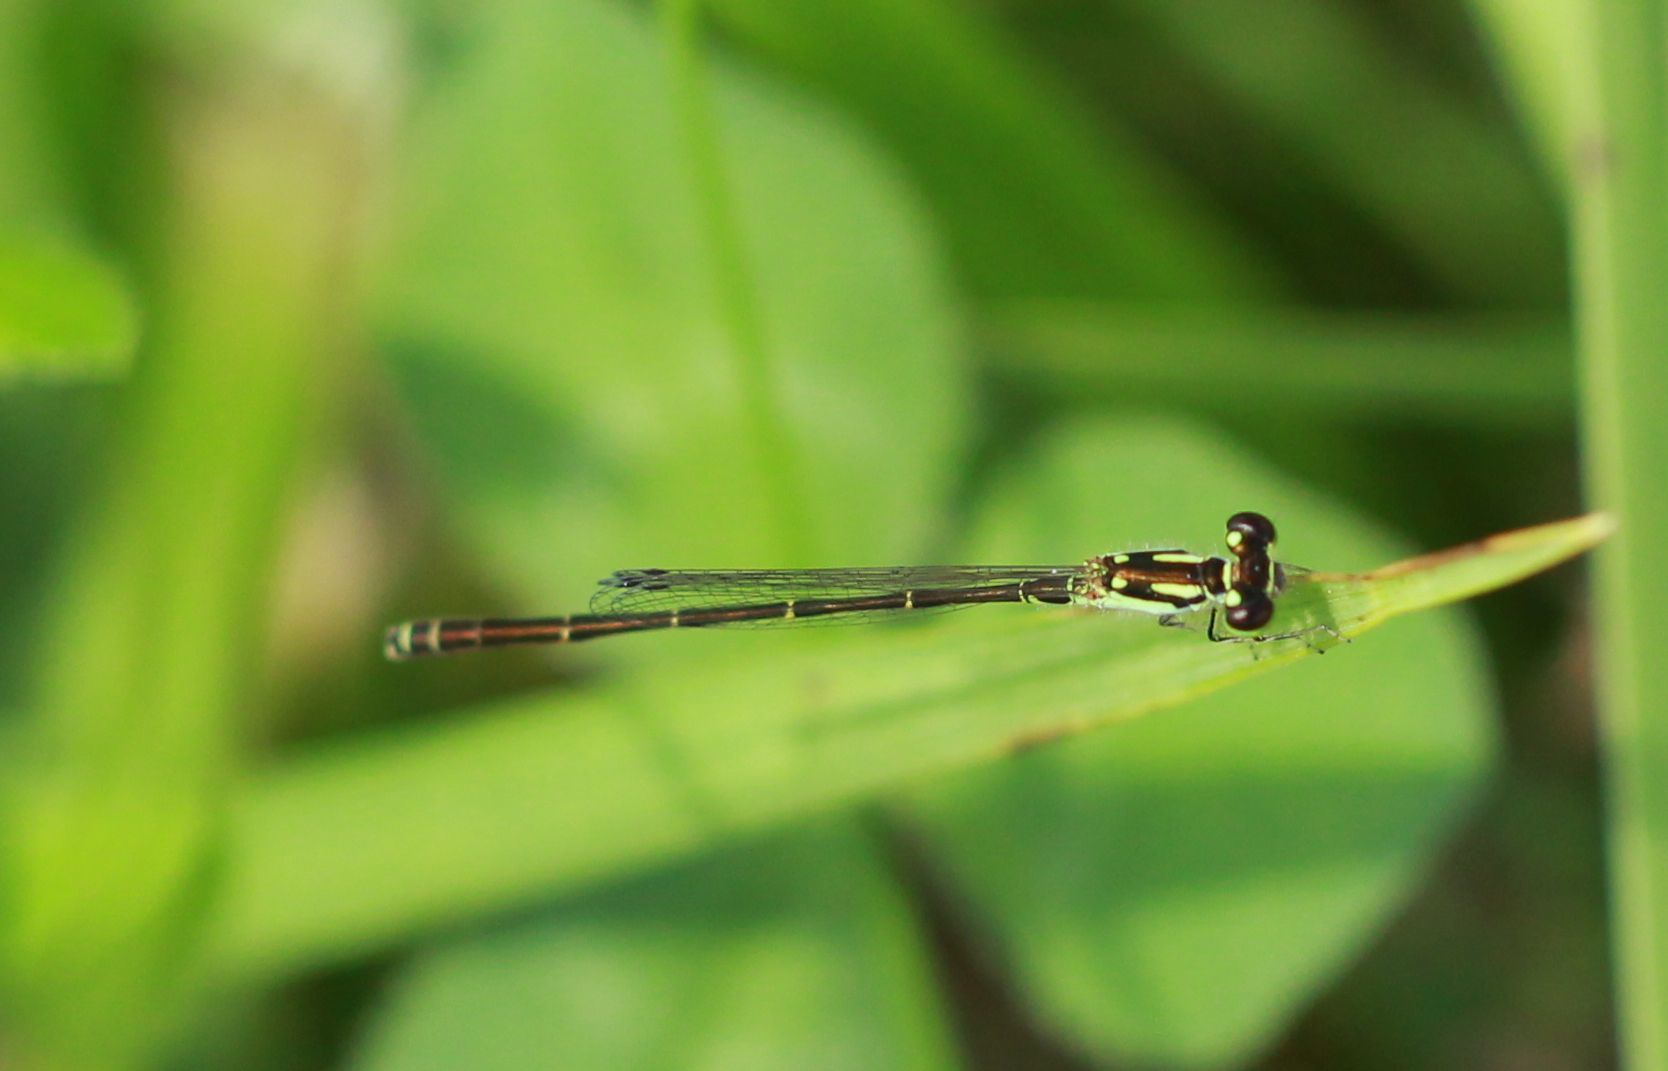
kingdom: Animalia
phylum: Arthropoda
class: Insecta
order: Odonata
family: Coenagrionidae
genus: Ischnura
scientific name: Ischnura posita
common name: Fragile forktail
